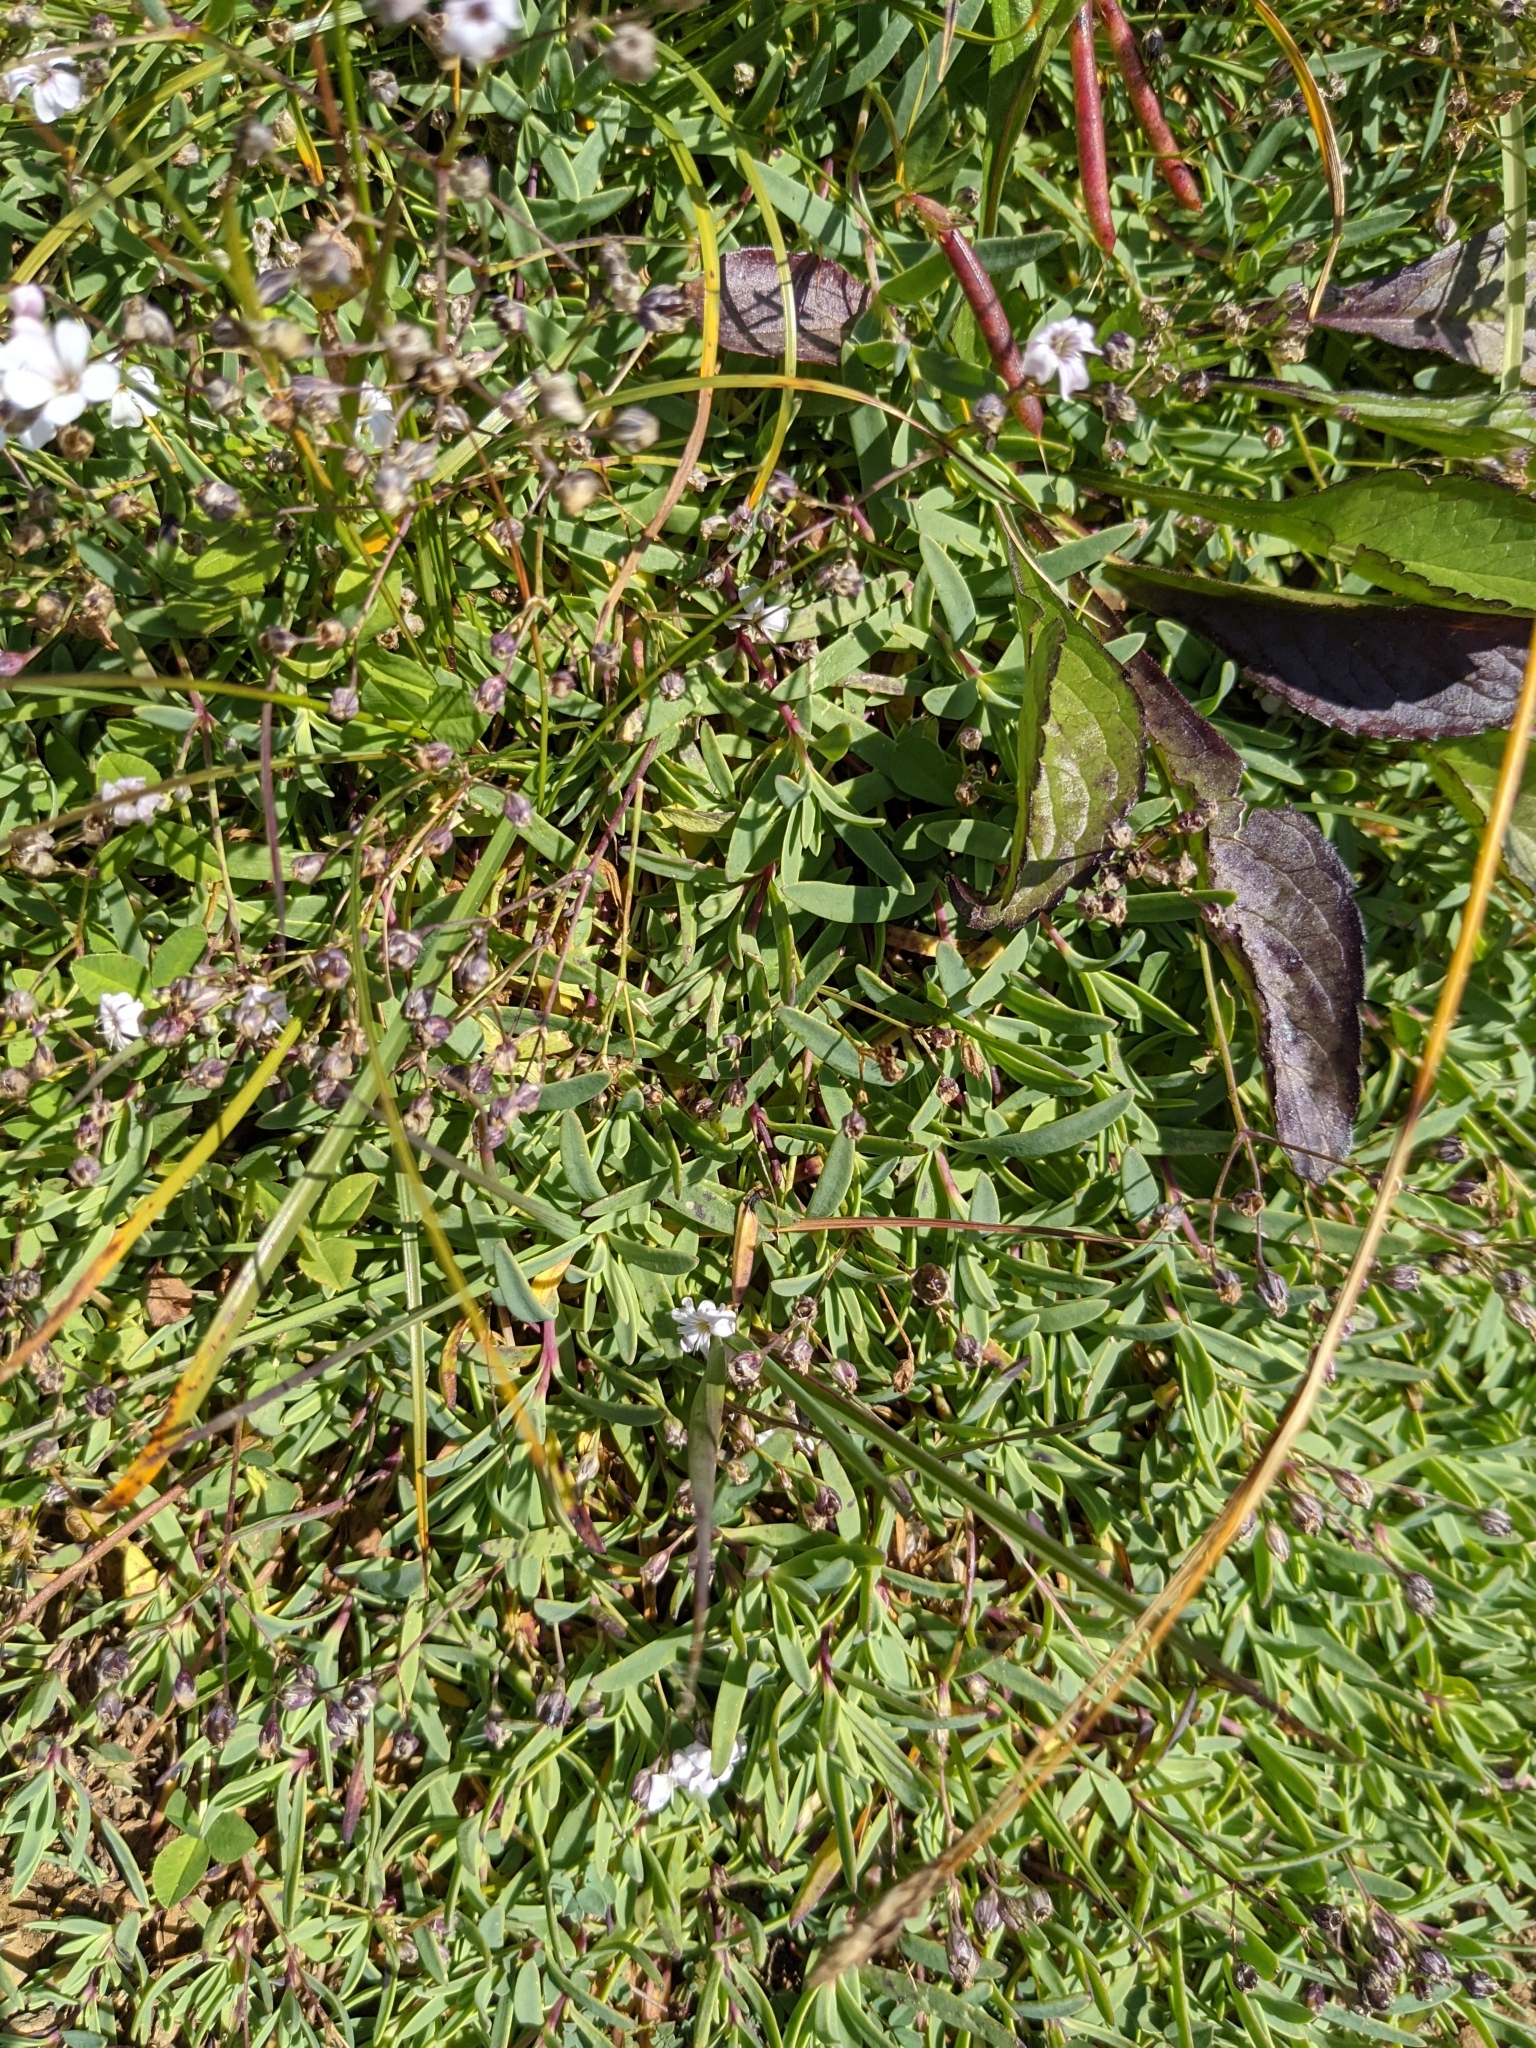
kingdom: Plantae
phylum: Tracheophyta
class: Magnoliopsida
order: Caryophyllales
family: Caryophyllaceae
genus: Gypsophila
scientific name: Gypsophila repens
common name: Creeping baby's-breath
